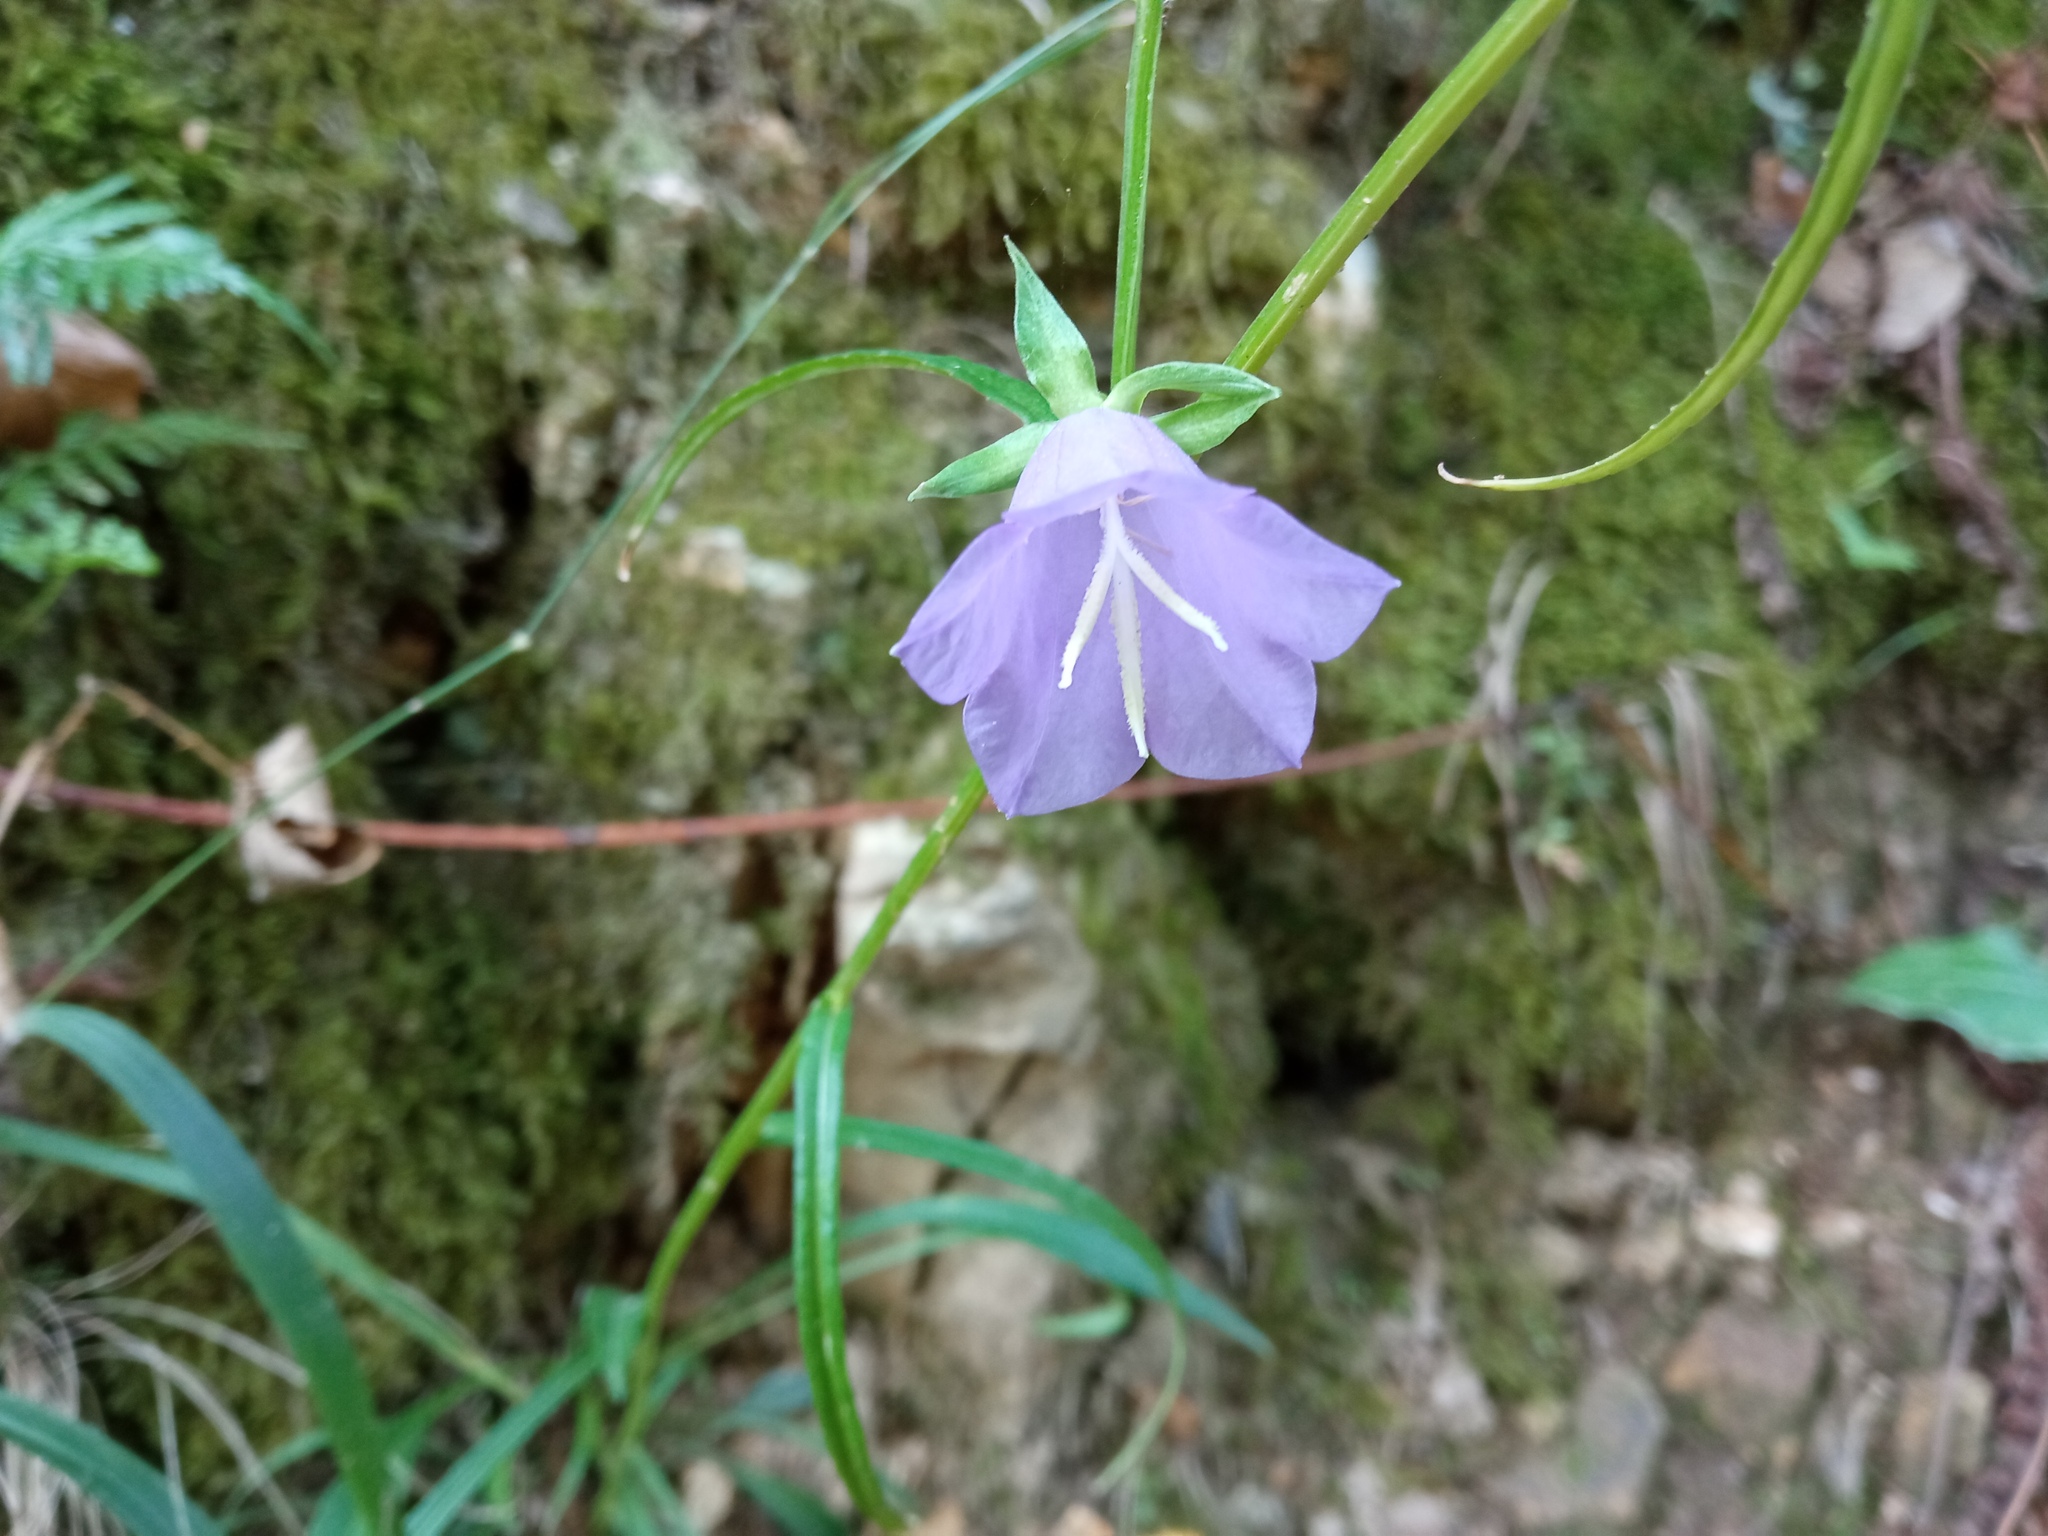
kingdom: Plantae
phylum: Tracheophyta
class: Magnoliopsida
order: Asterales
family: Campanulaceae
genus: Campanula
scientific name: Campanula persicifolia
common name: Peach-leaved bellflower
